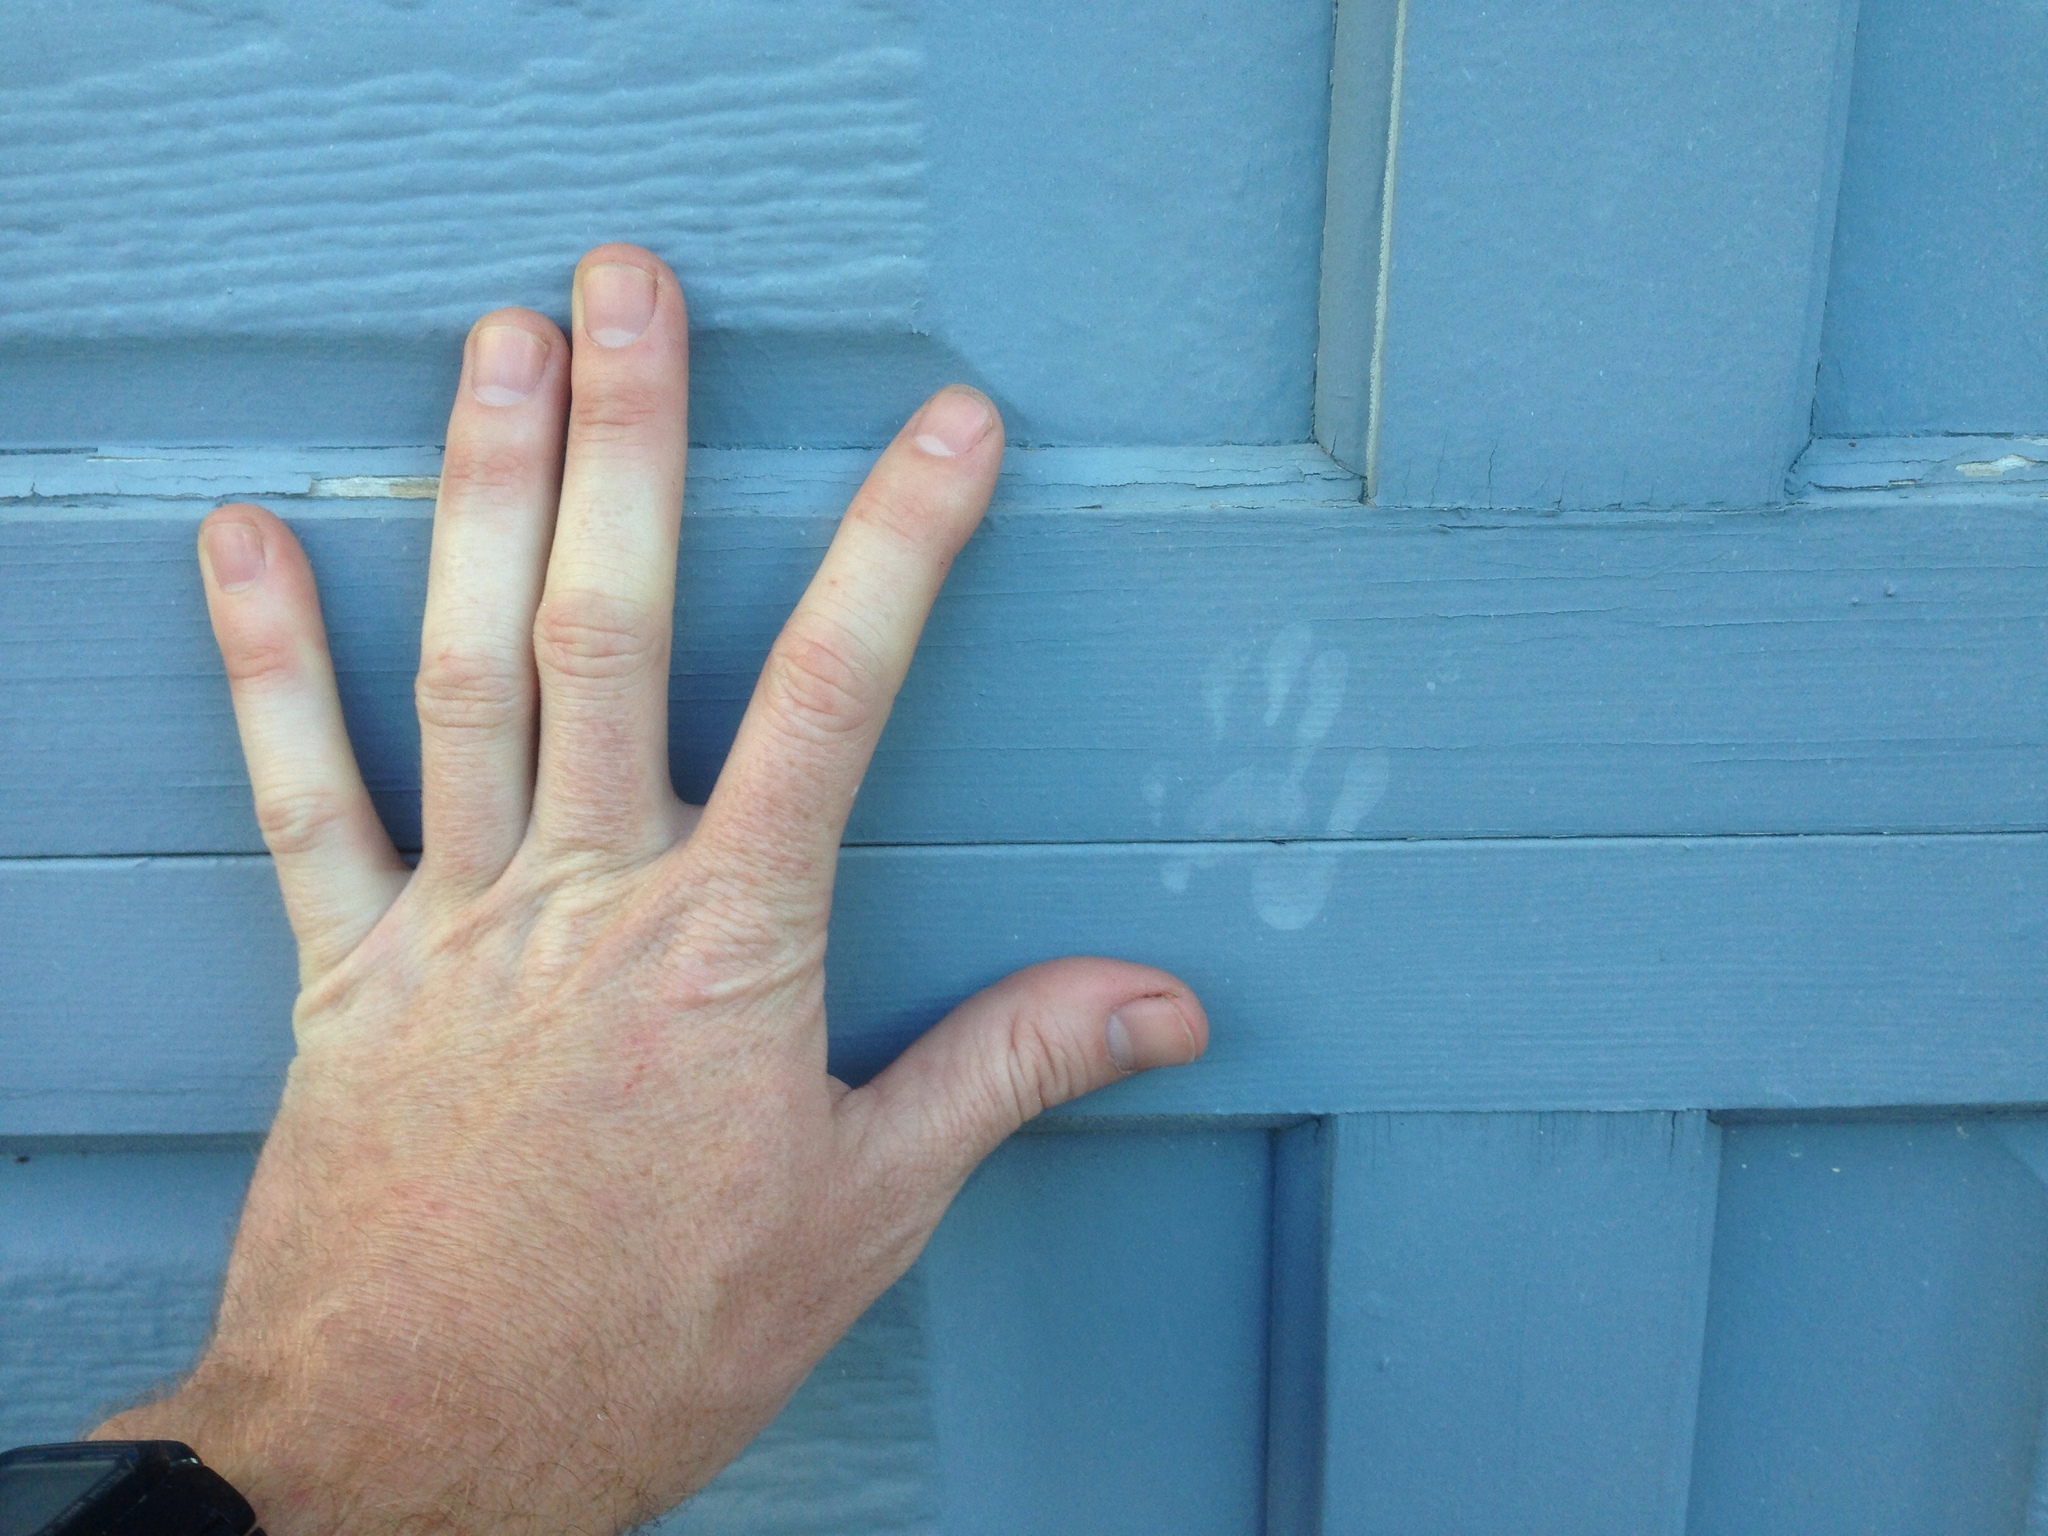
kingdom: Animalia
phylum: Chordata
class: Mammalia
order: Carnivora
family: Procyonidae
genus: Procyon
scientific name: Procyon lotor
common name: Raccoon
